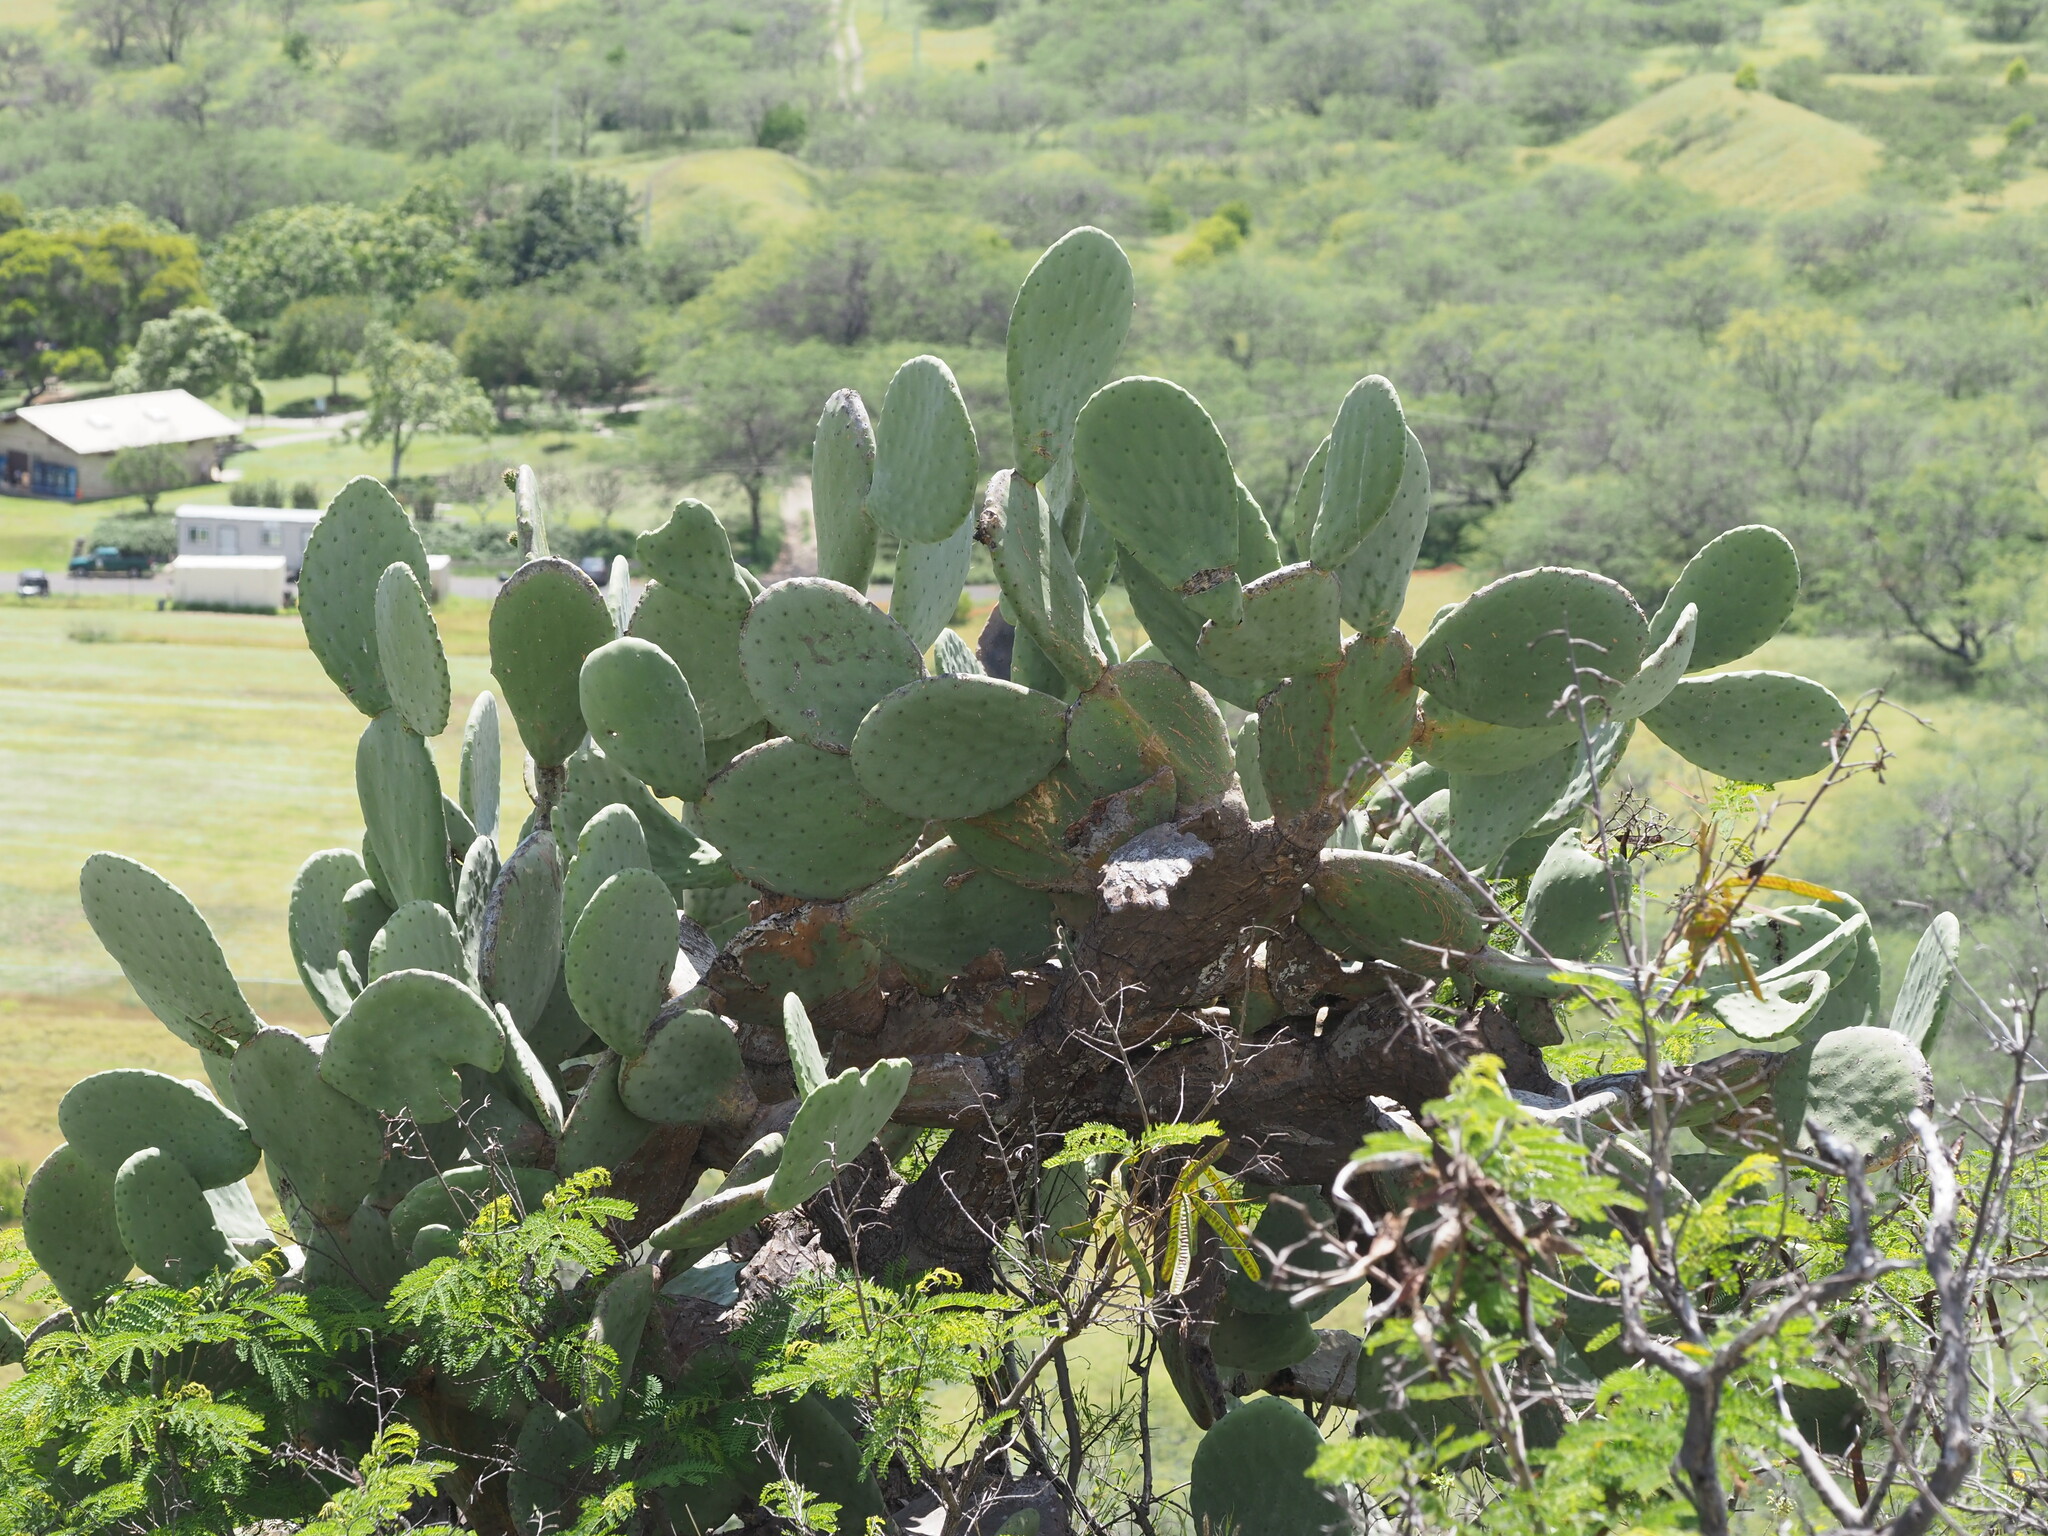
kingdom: Plantae
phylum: Tracheophyta
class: Magnoliopsida
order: Caryophyllales
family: Cactaceae
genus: Opuntia
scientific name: Opuntia ficus-indica
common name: Barbary fig
